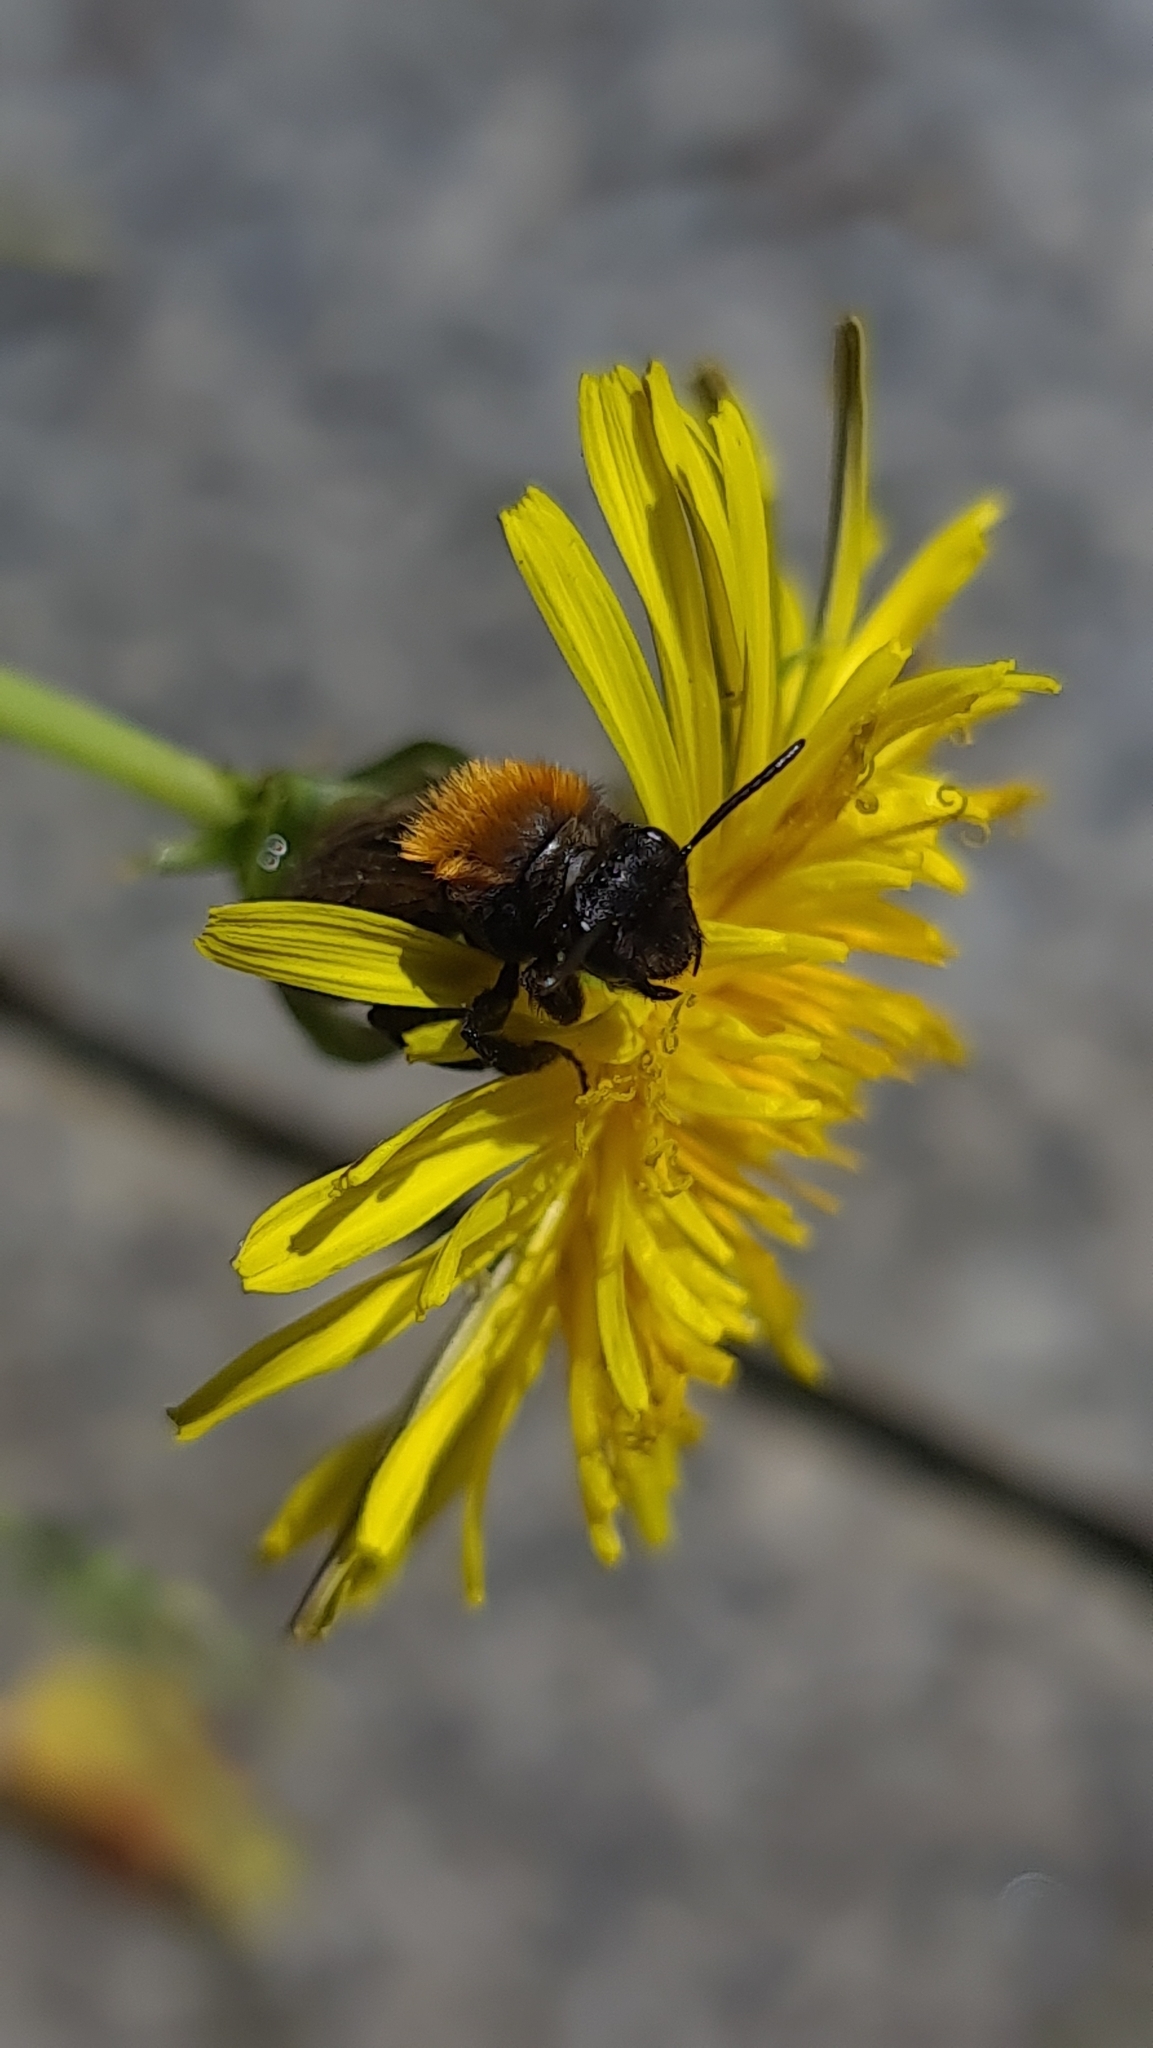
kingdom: Animalia
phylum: Arthropoda
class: Insecta
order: Hymenoptera
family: Andrenidae
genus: Andrena
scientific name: Andrena fulva
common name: Tawny mining bee
